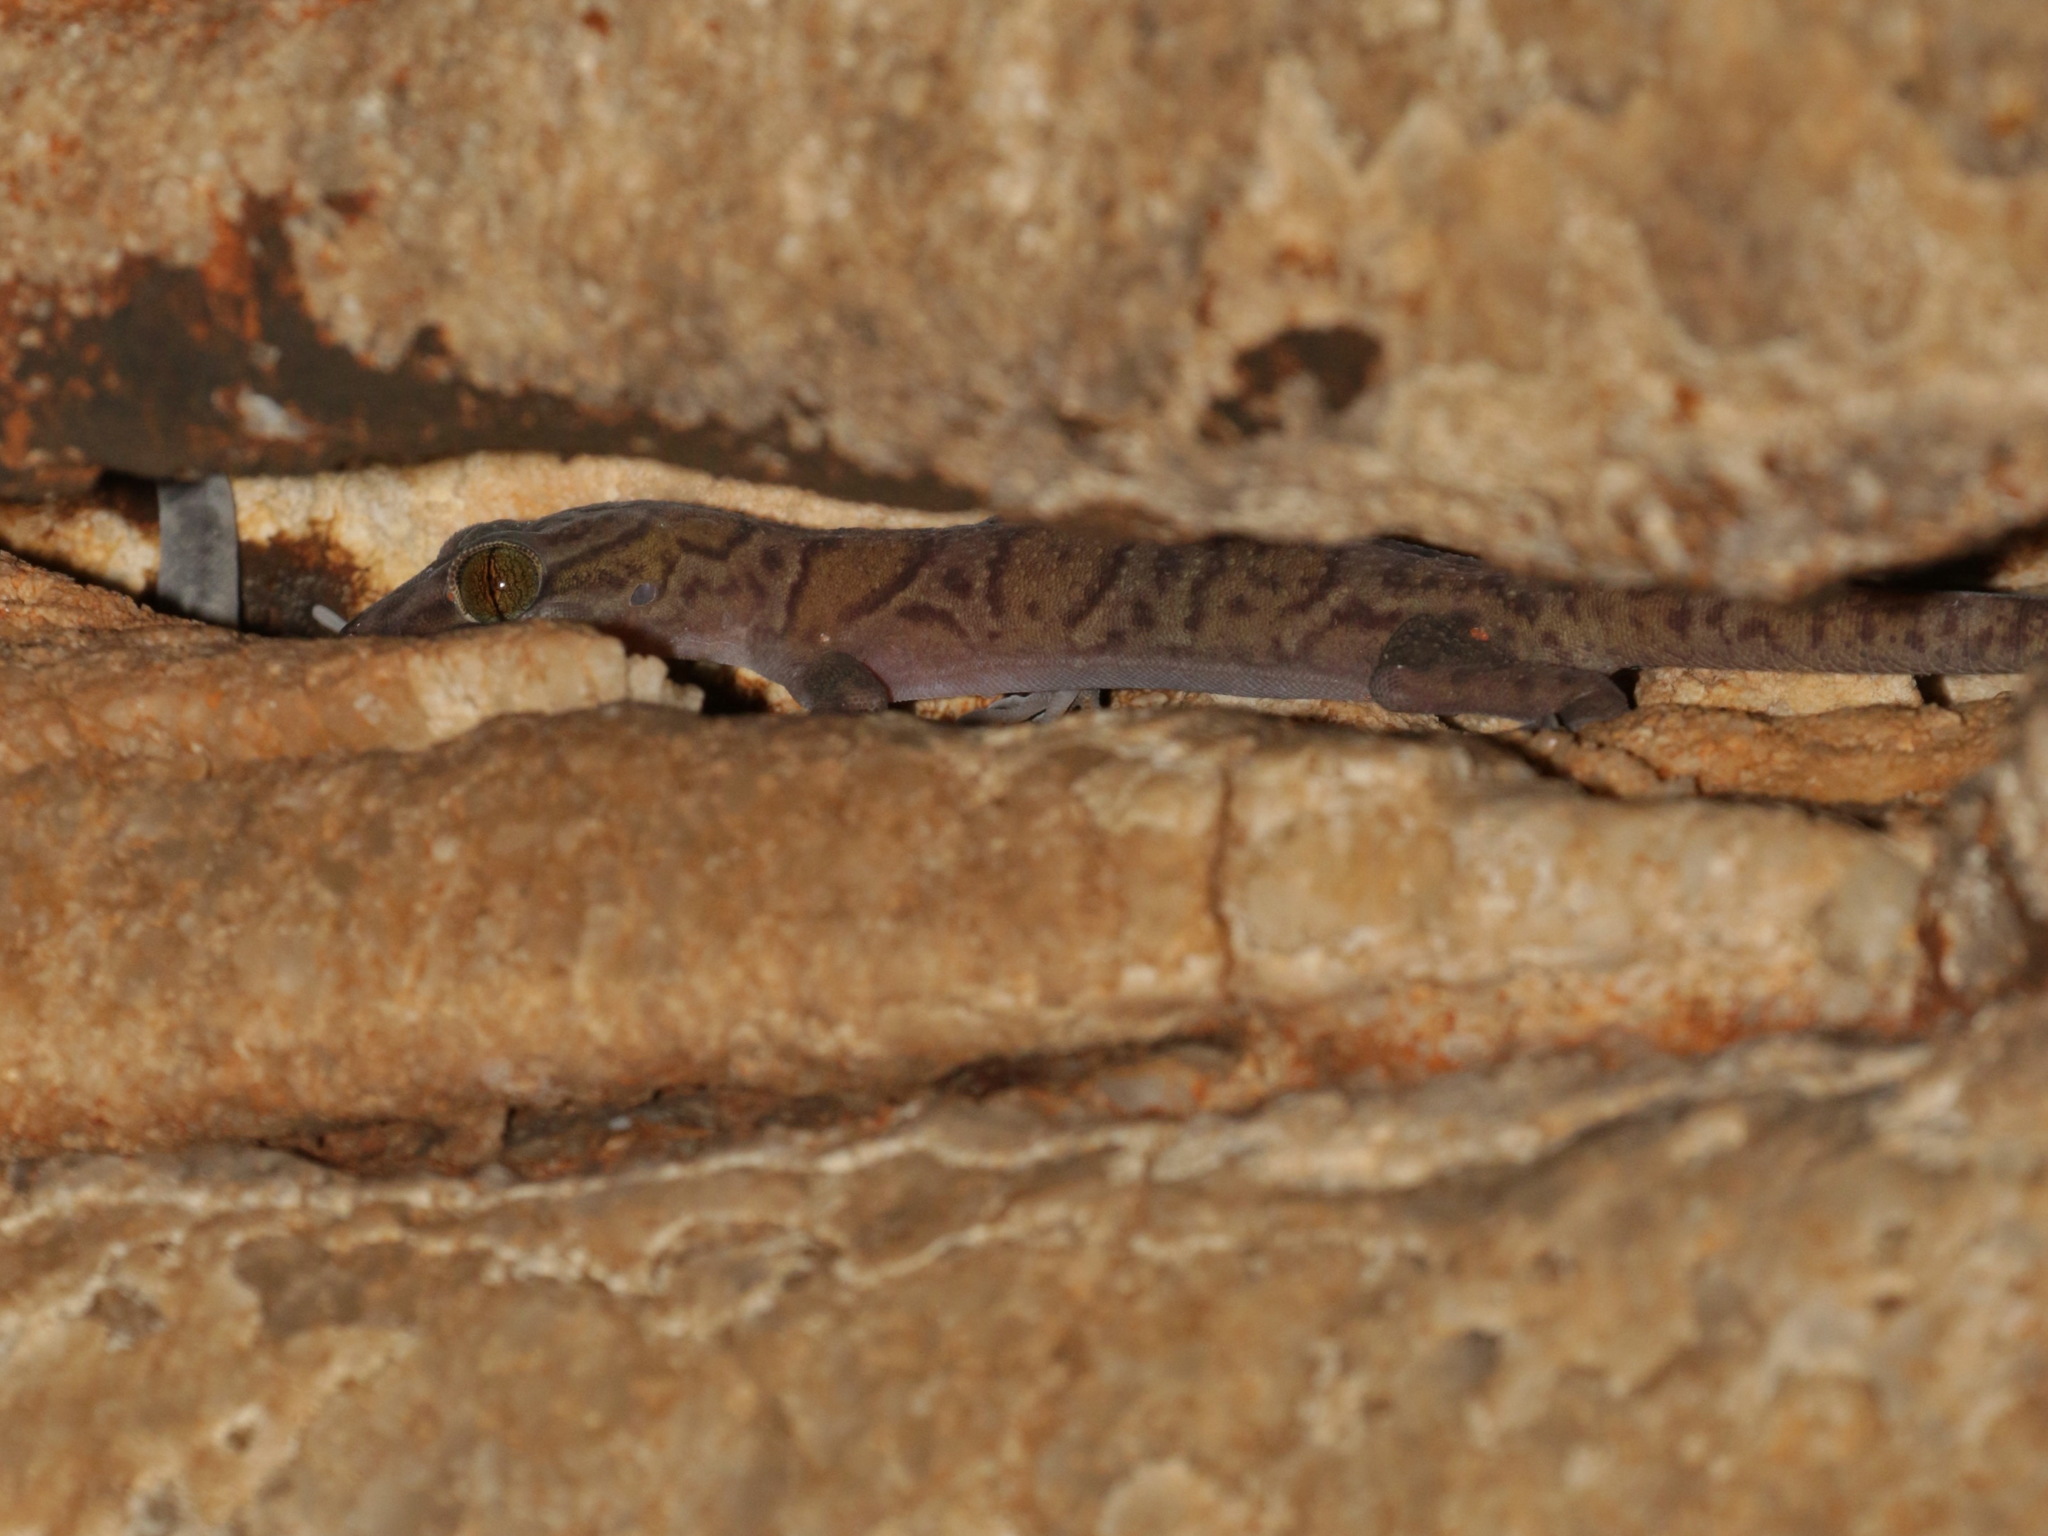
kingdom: Animalia
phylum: Chordata
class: Squamata
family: Gekkonidae
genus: Cyrtodactylus
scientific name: Cyrtodactylus tigroides
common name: Tiger bent-toed gecko
